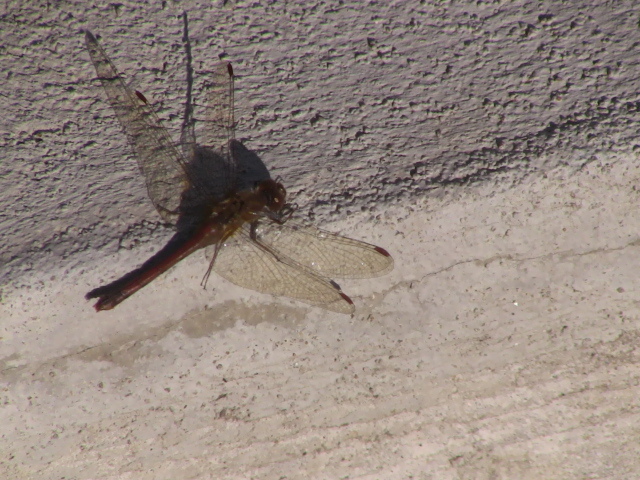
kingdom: Animalia
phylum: Arthropoda
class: Insecta
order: Odonata
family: Libellulidae
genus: Sympetrum
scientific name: Sympetrum vicinum
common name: Autumn meadowhawk
